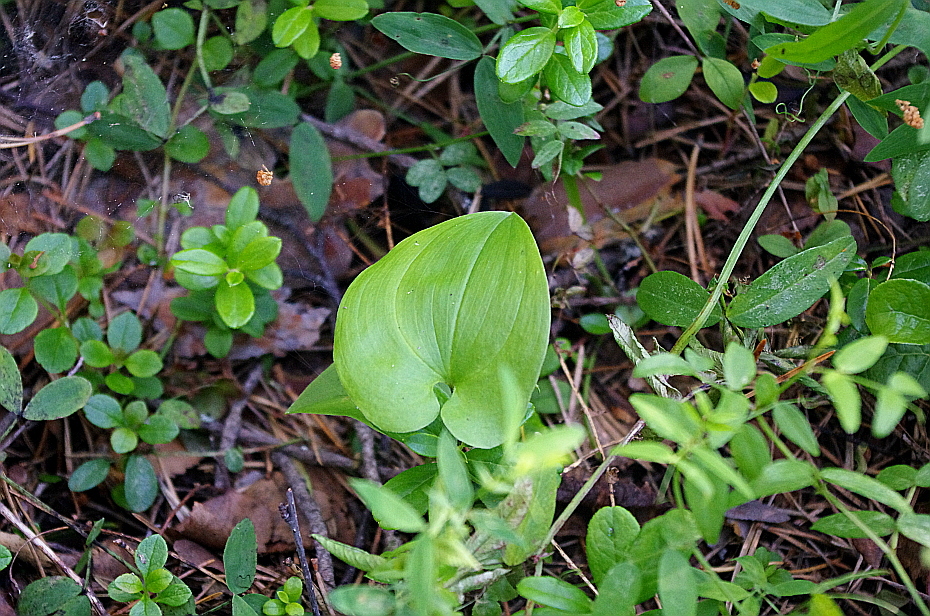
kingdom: Plantae
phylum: Tracheophyta
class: Liliopsida
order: Asparagales
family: Asparagaceae
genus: Maianthemum
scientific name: Maianthemum bifolium
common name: May lily
